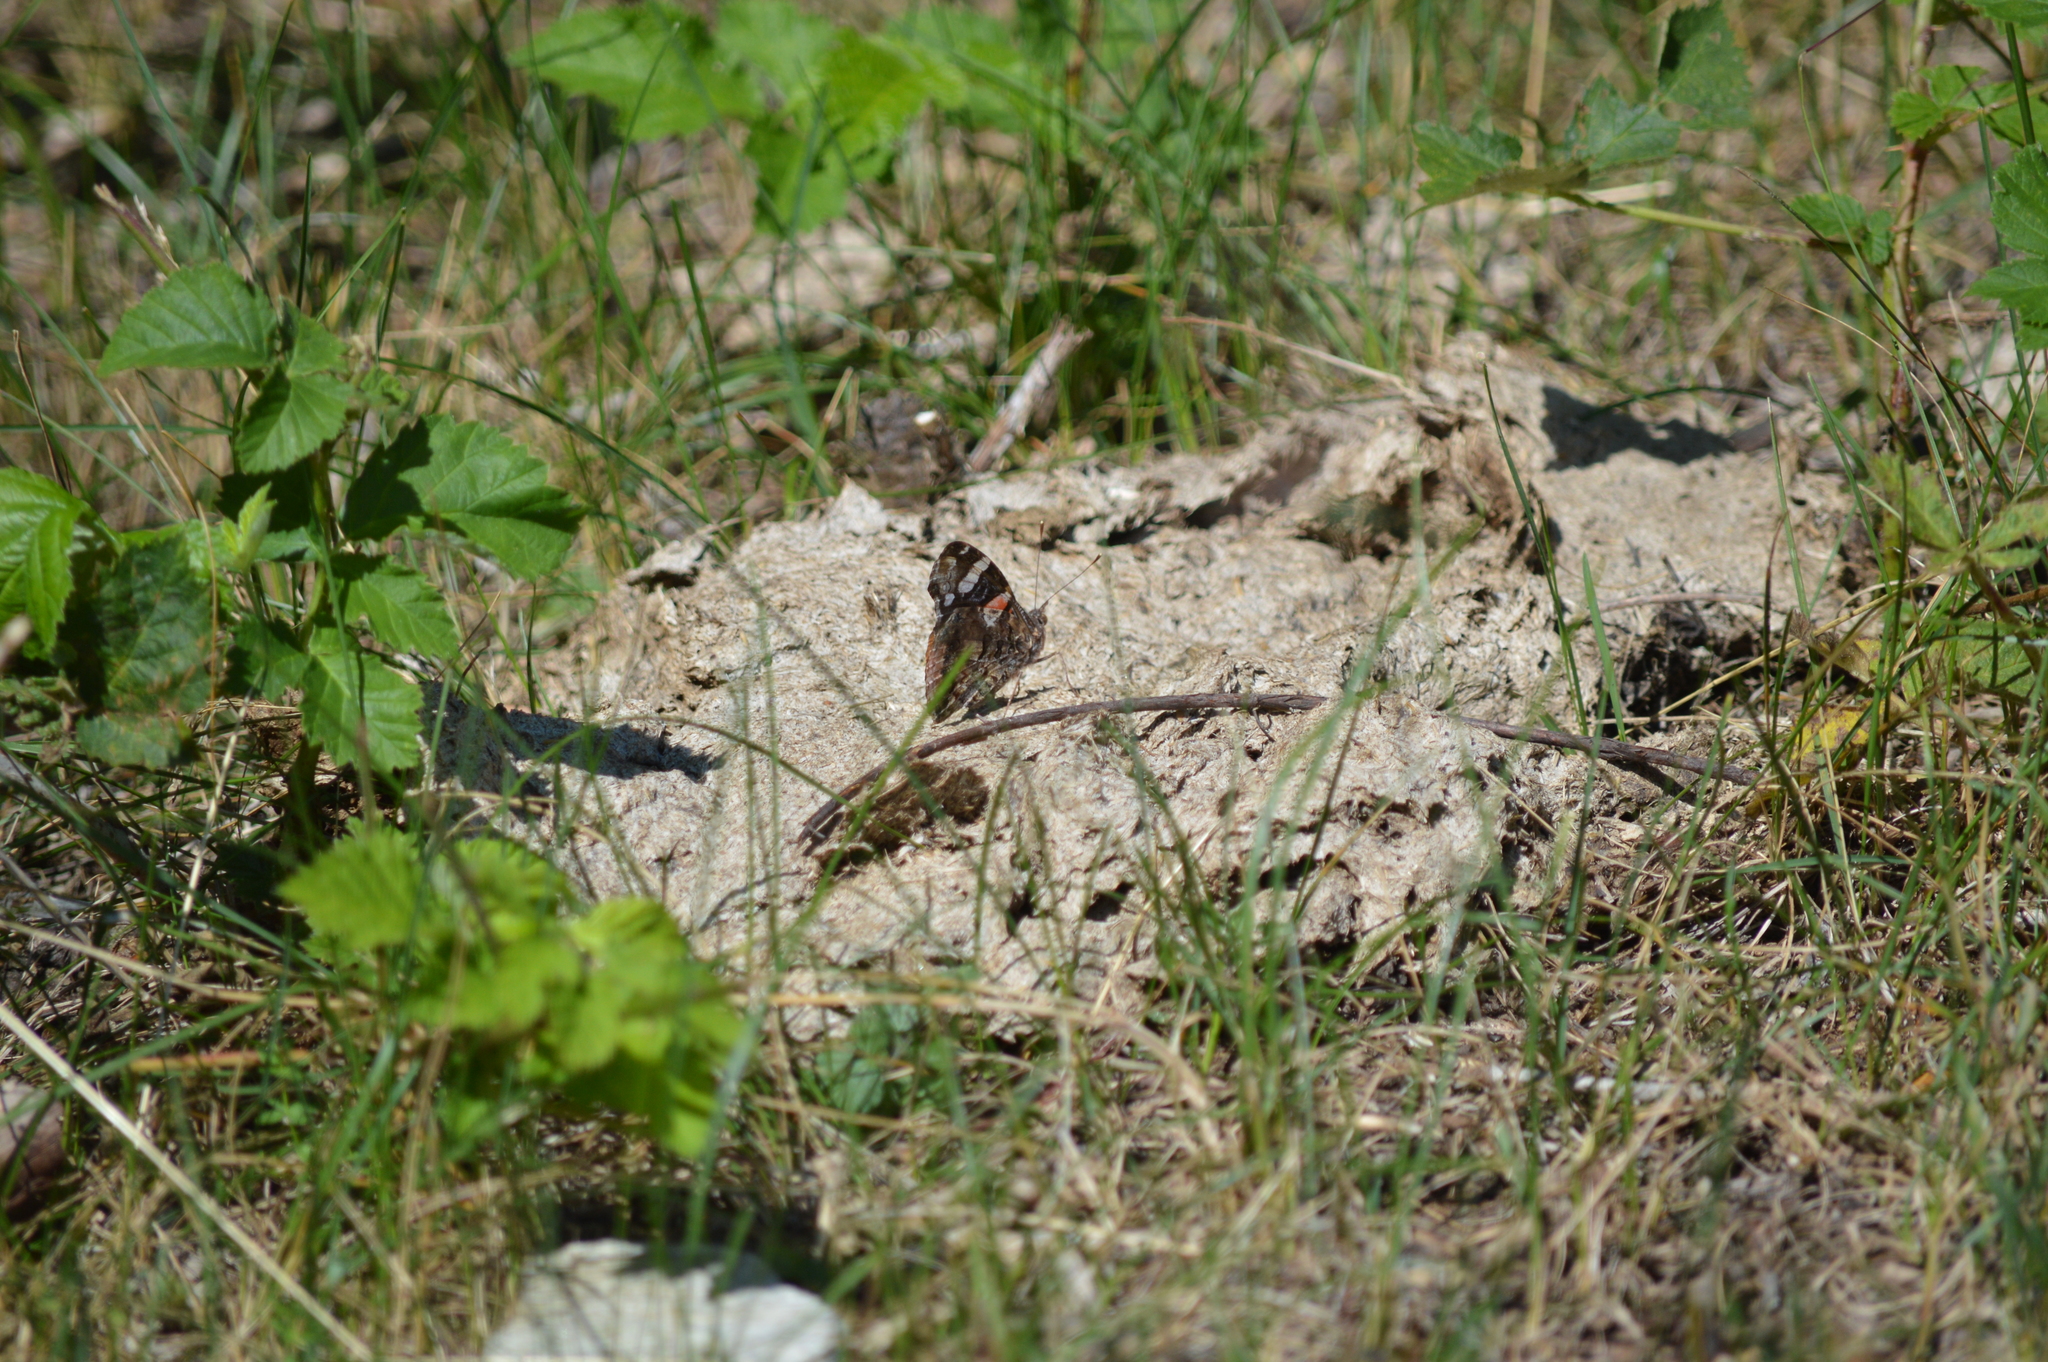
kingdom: Animalia
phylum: Arthropoda
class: Insecta
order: Lepidoptera
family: Nymphalidae
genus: Vanessa
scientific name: Vanessa atalanta
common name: Red admiral
